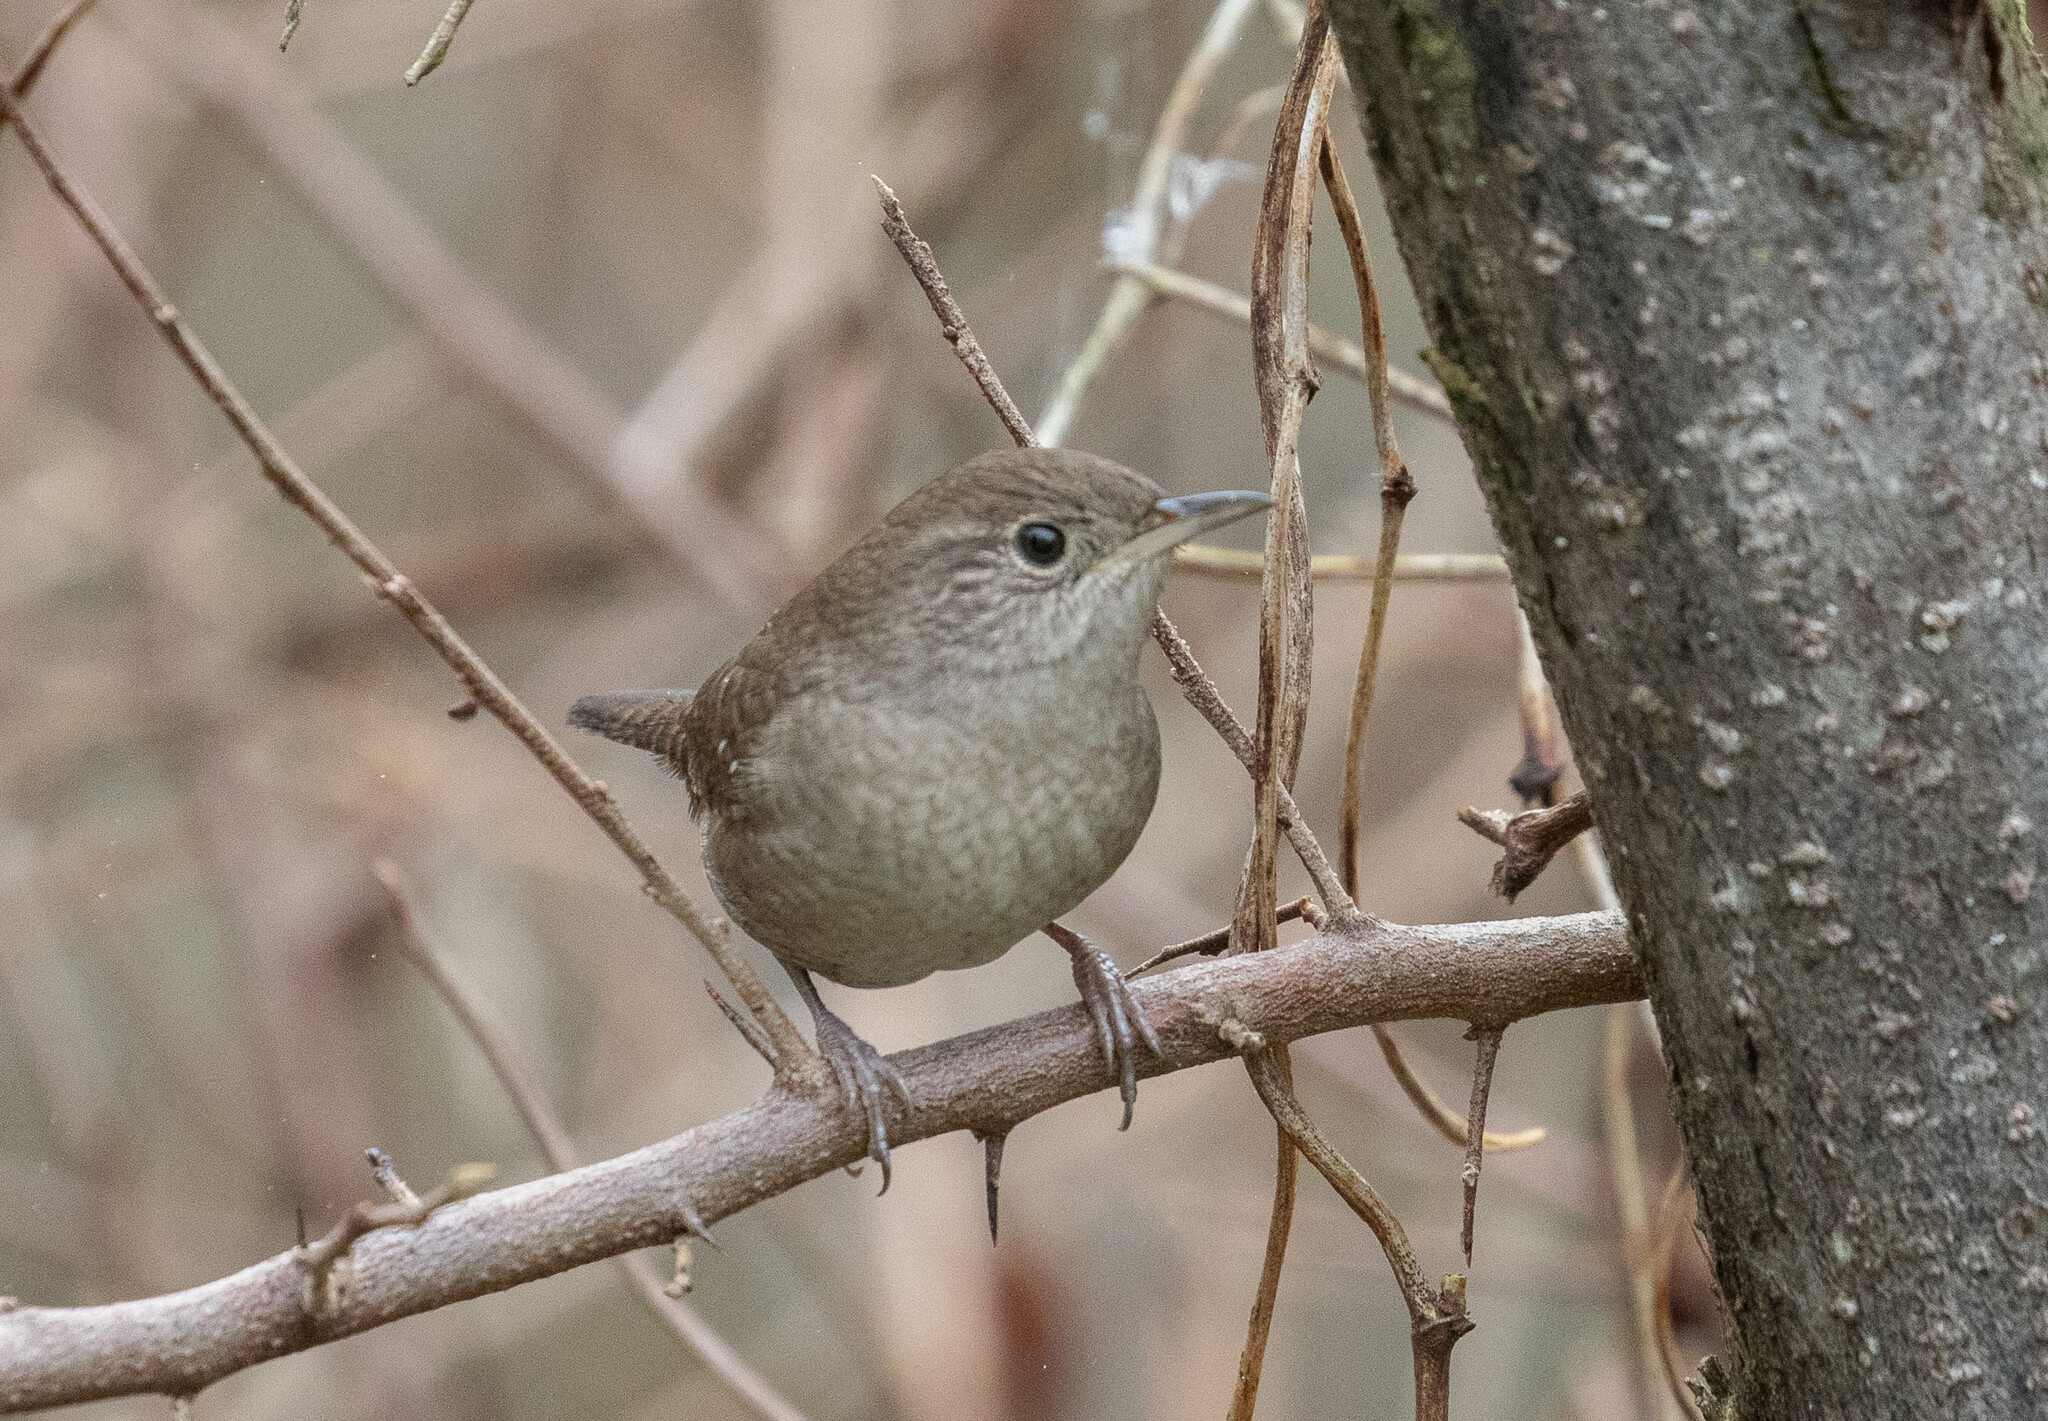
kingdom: Animalia
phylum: Chordata
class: Aves
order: Passeriformes
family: Troglodytidae
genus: Troglodytes
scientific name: Troglodytes aedon
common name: House wren
